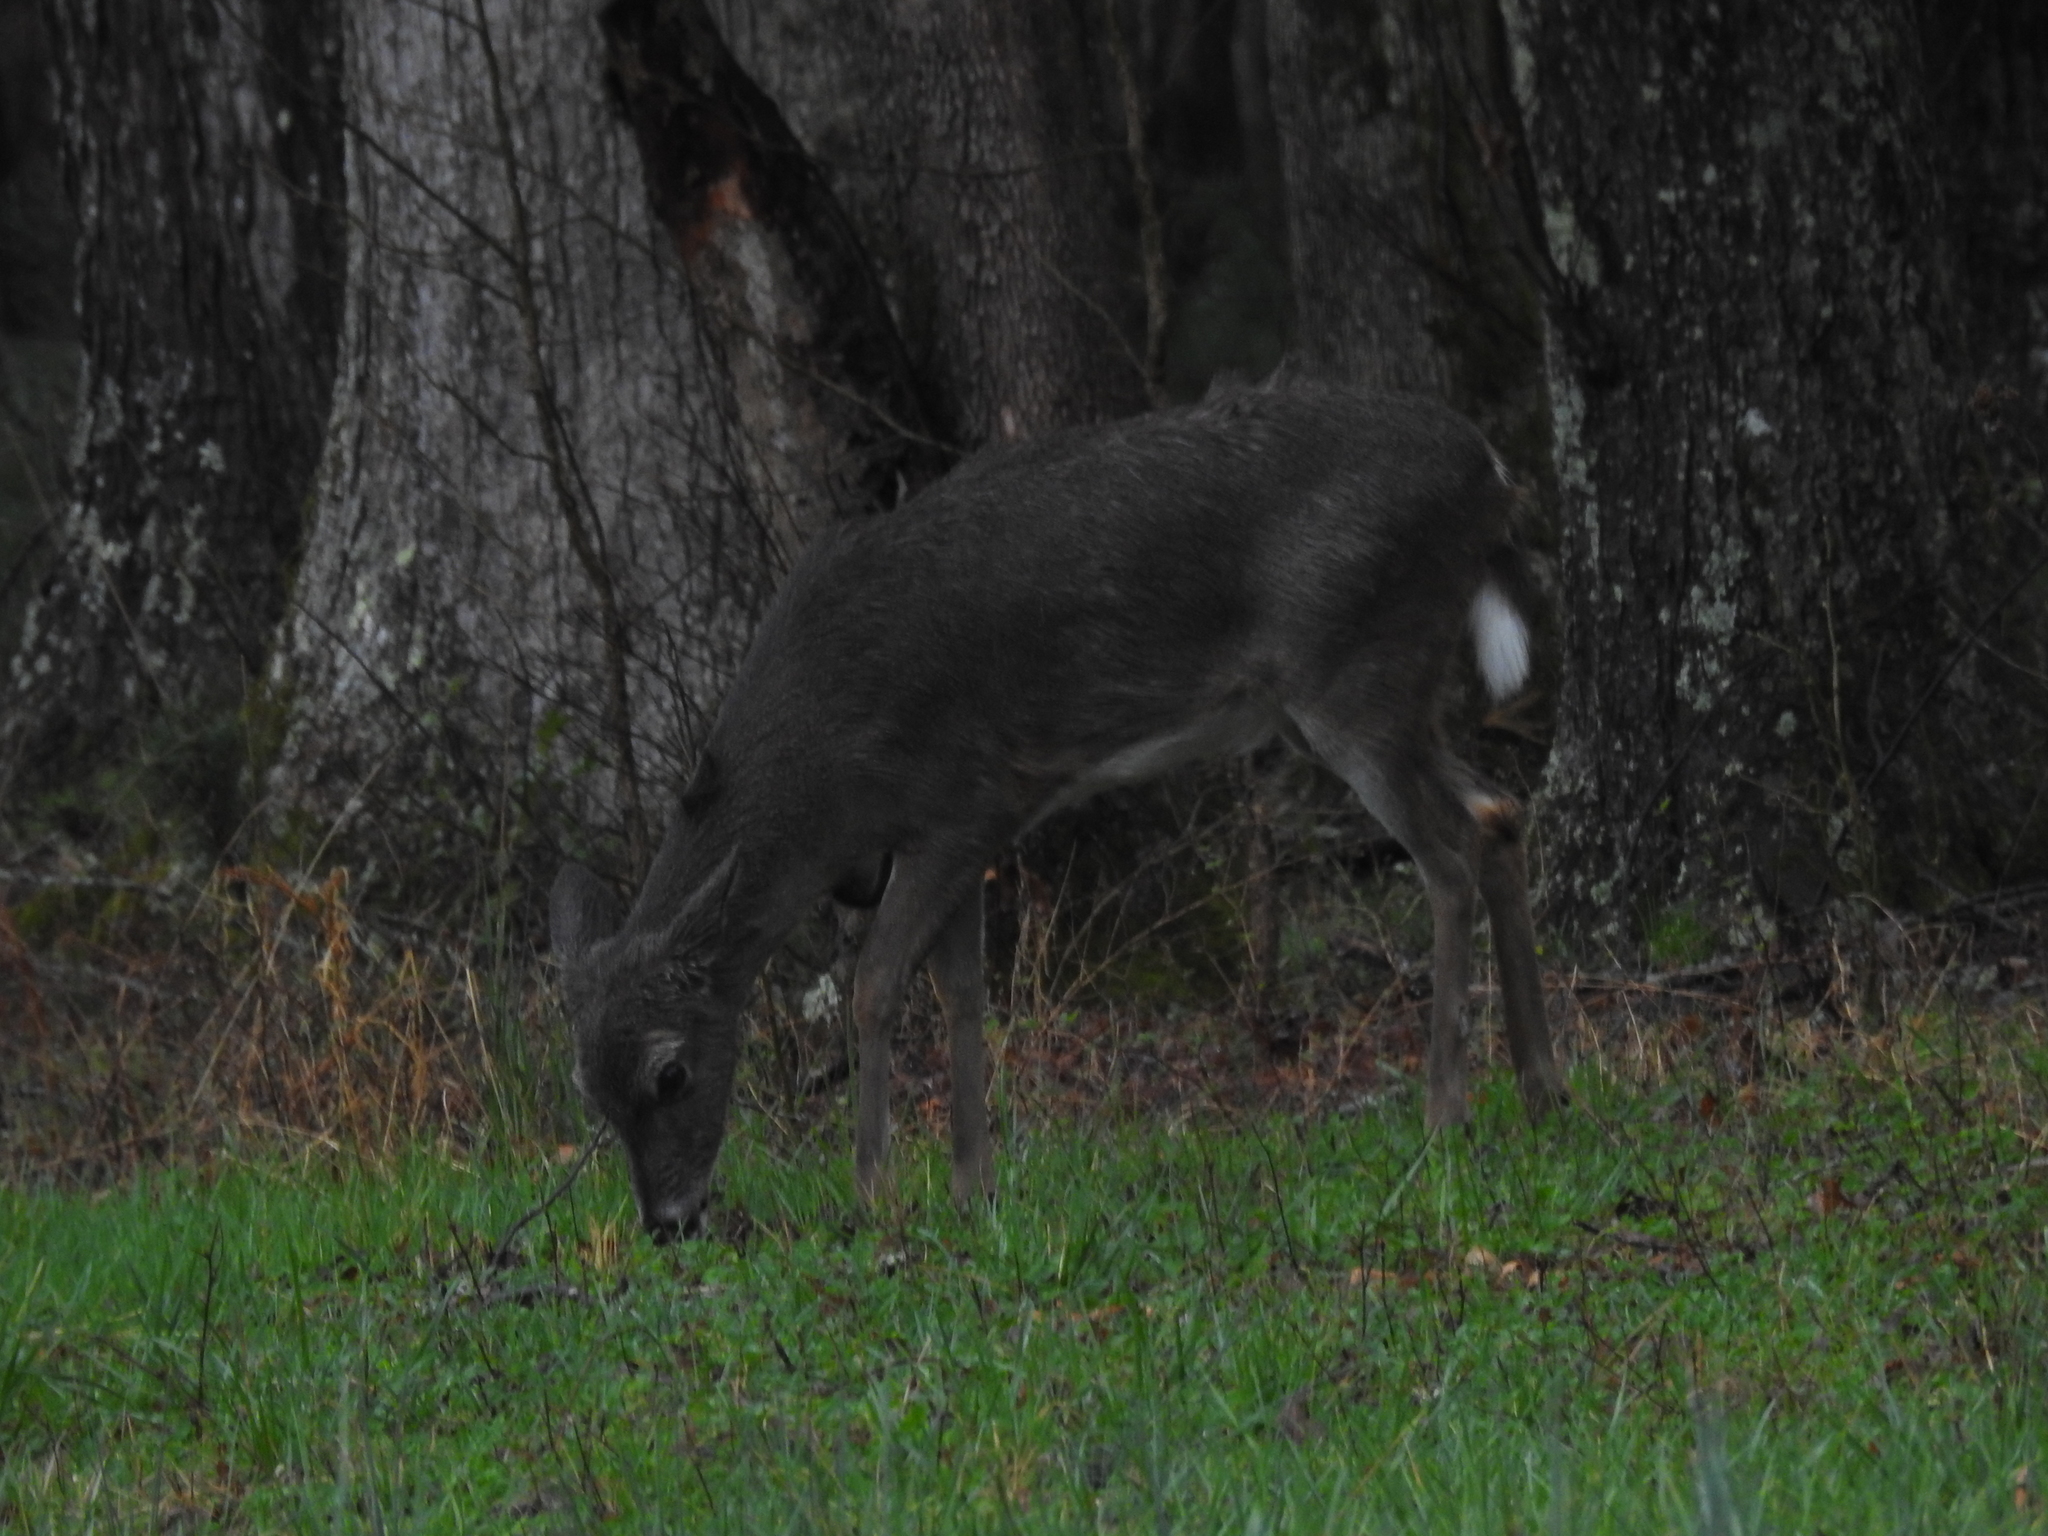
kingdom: Animalia
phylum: Chordata
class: Mammalia
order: Artiodactyla
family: Cervidae
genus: Odocoileus
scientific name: Odocoileus virginianus
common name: White-tailed deer
